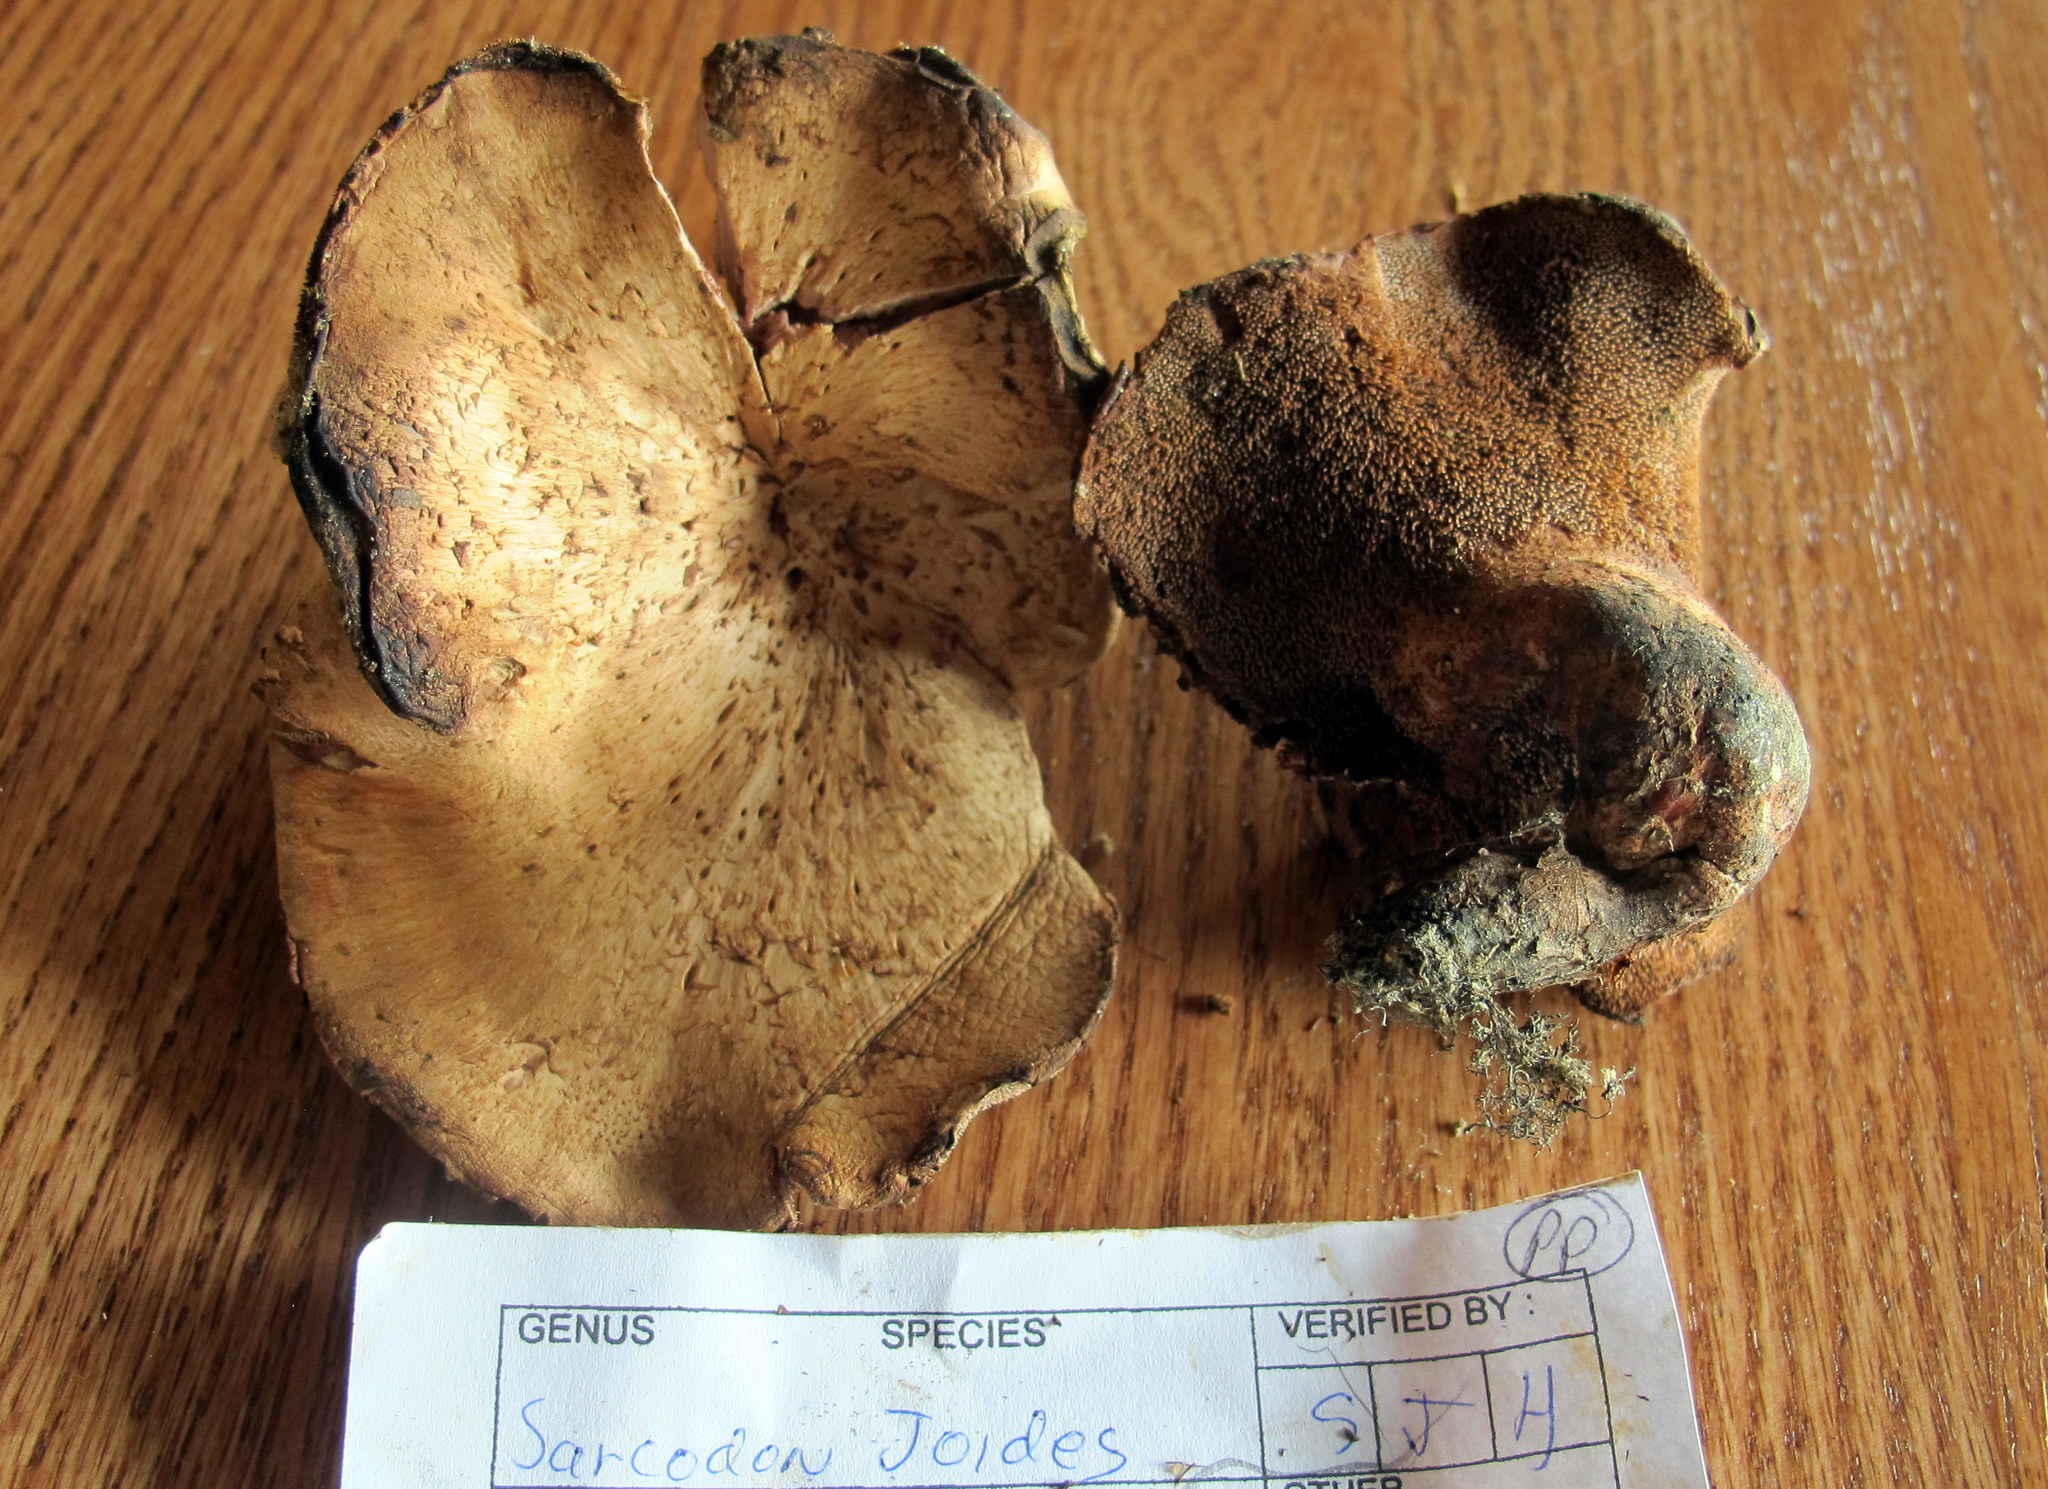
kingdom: Fungi
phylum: Basidiomycota
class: Agaricomycetes
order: Thelephorales
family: Bankeraceae
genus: Hydnellum
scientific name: Hydnellum ioeides
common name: Violet tooth
